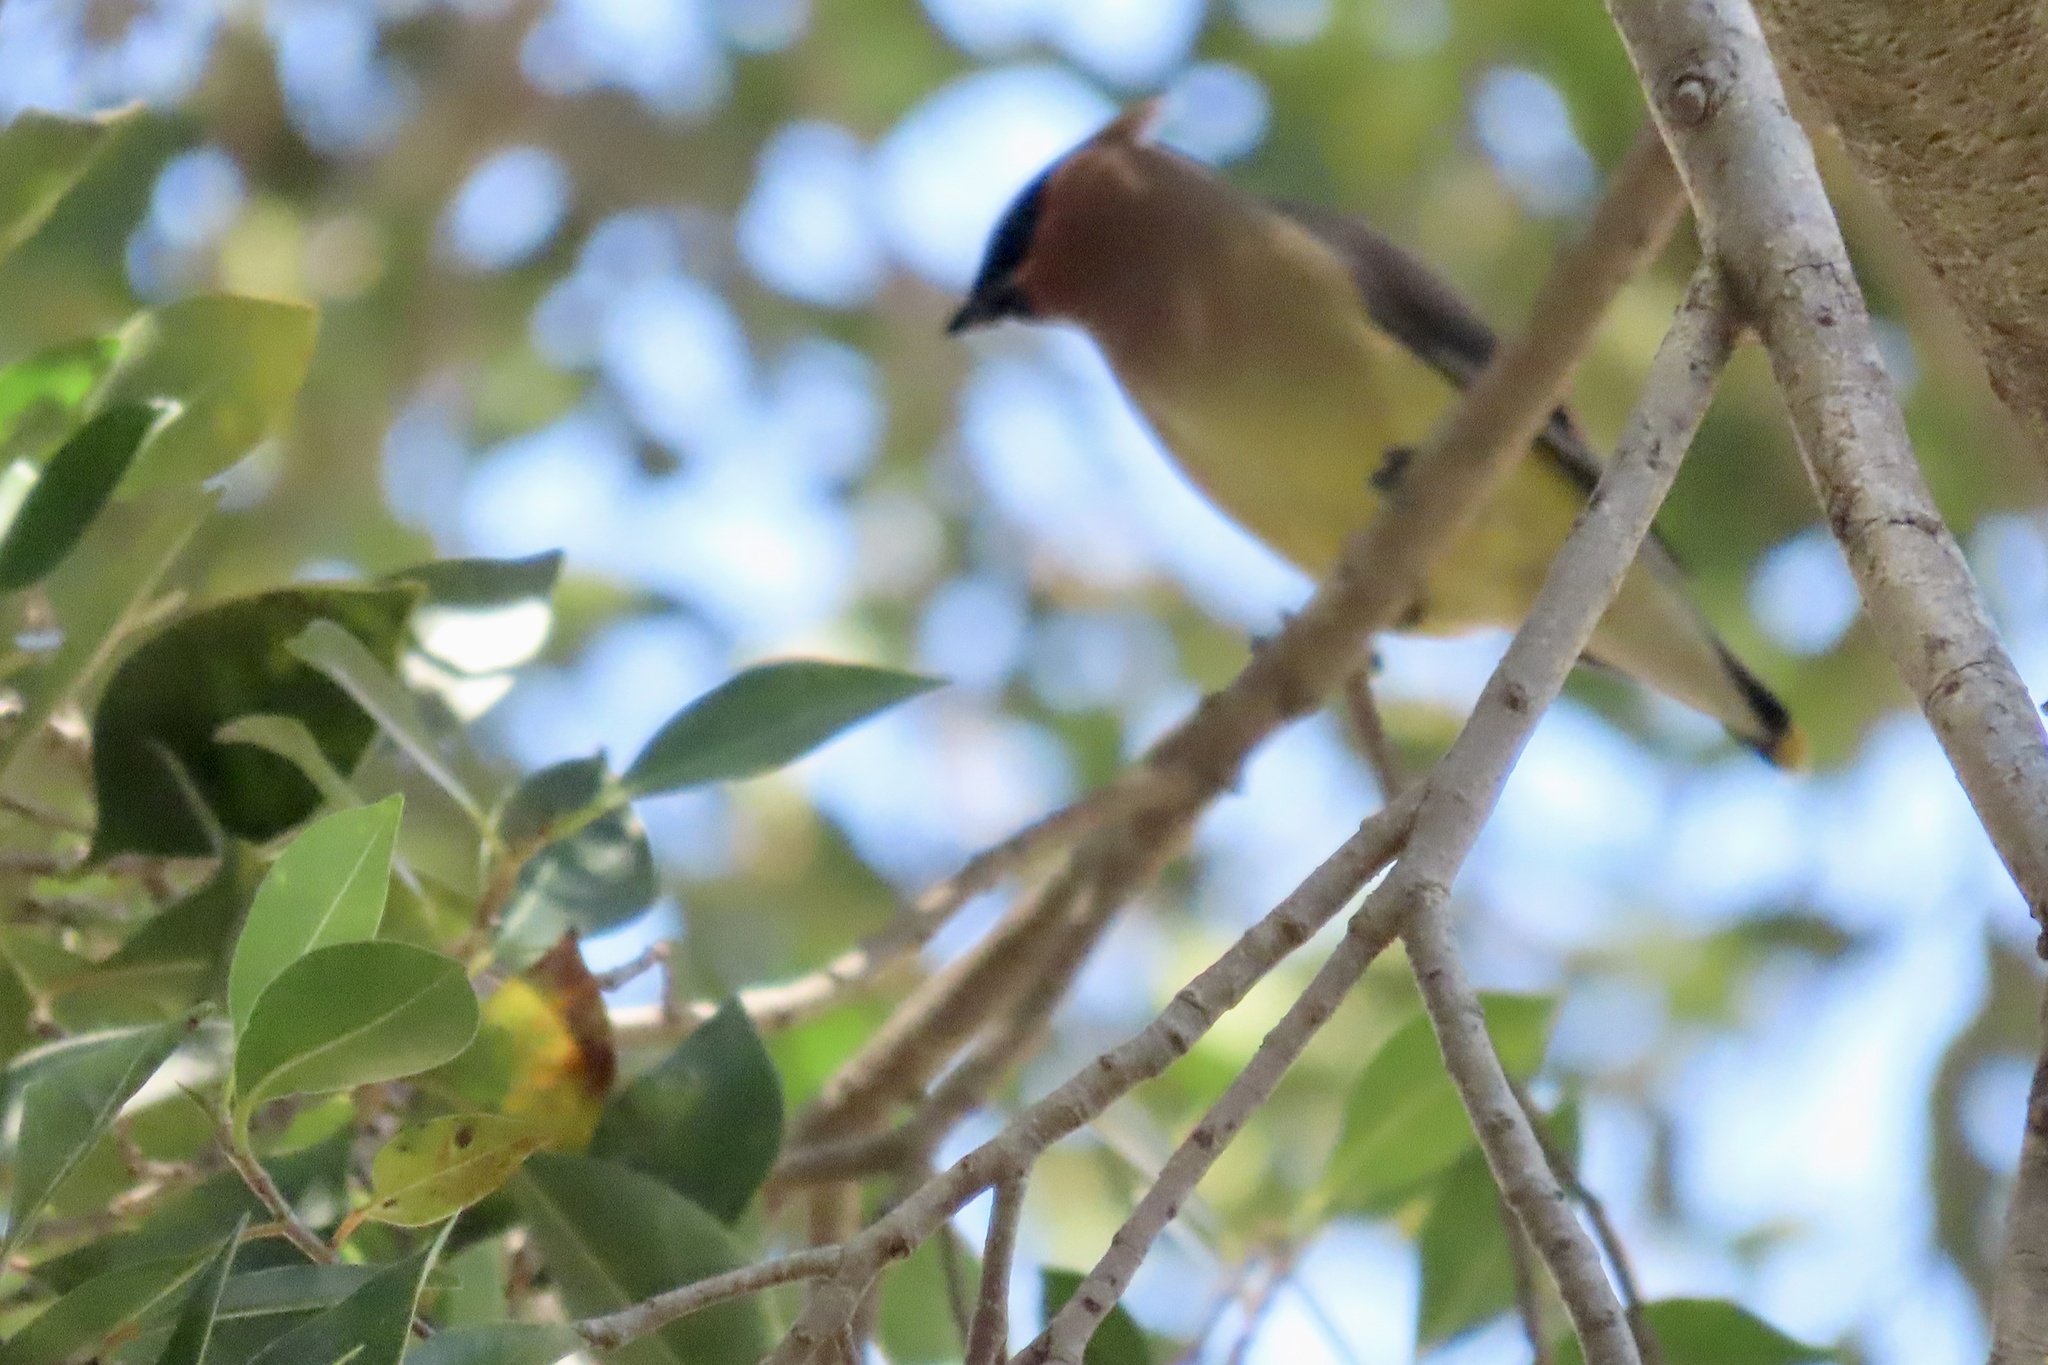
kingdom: Animalia
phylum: Chordata
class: Aves
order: Passeriformes
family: Bombycillidae
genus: Bombycilla
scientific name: Bombycilla cedrorum
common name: Cedar waxwing
